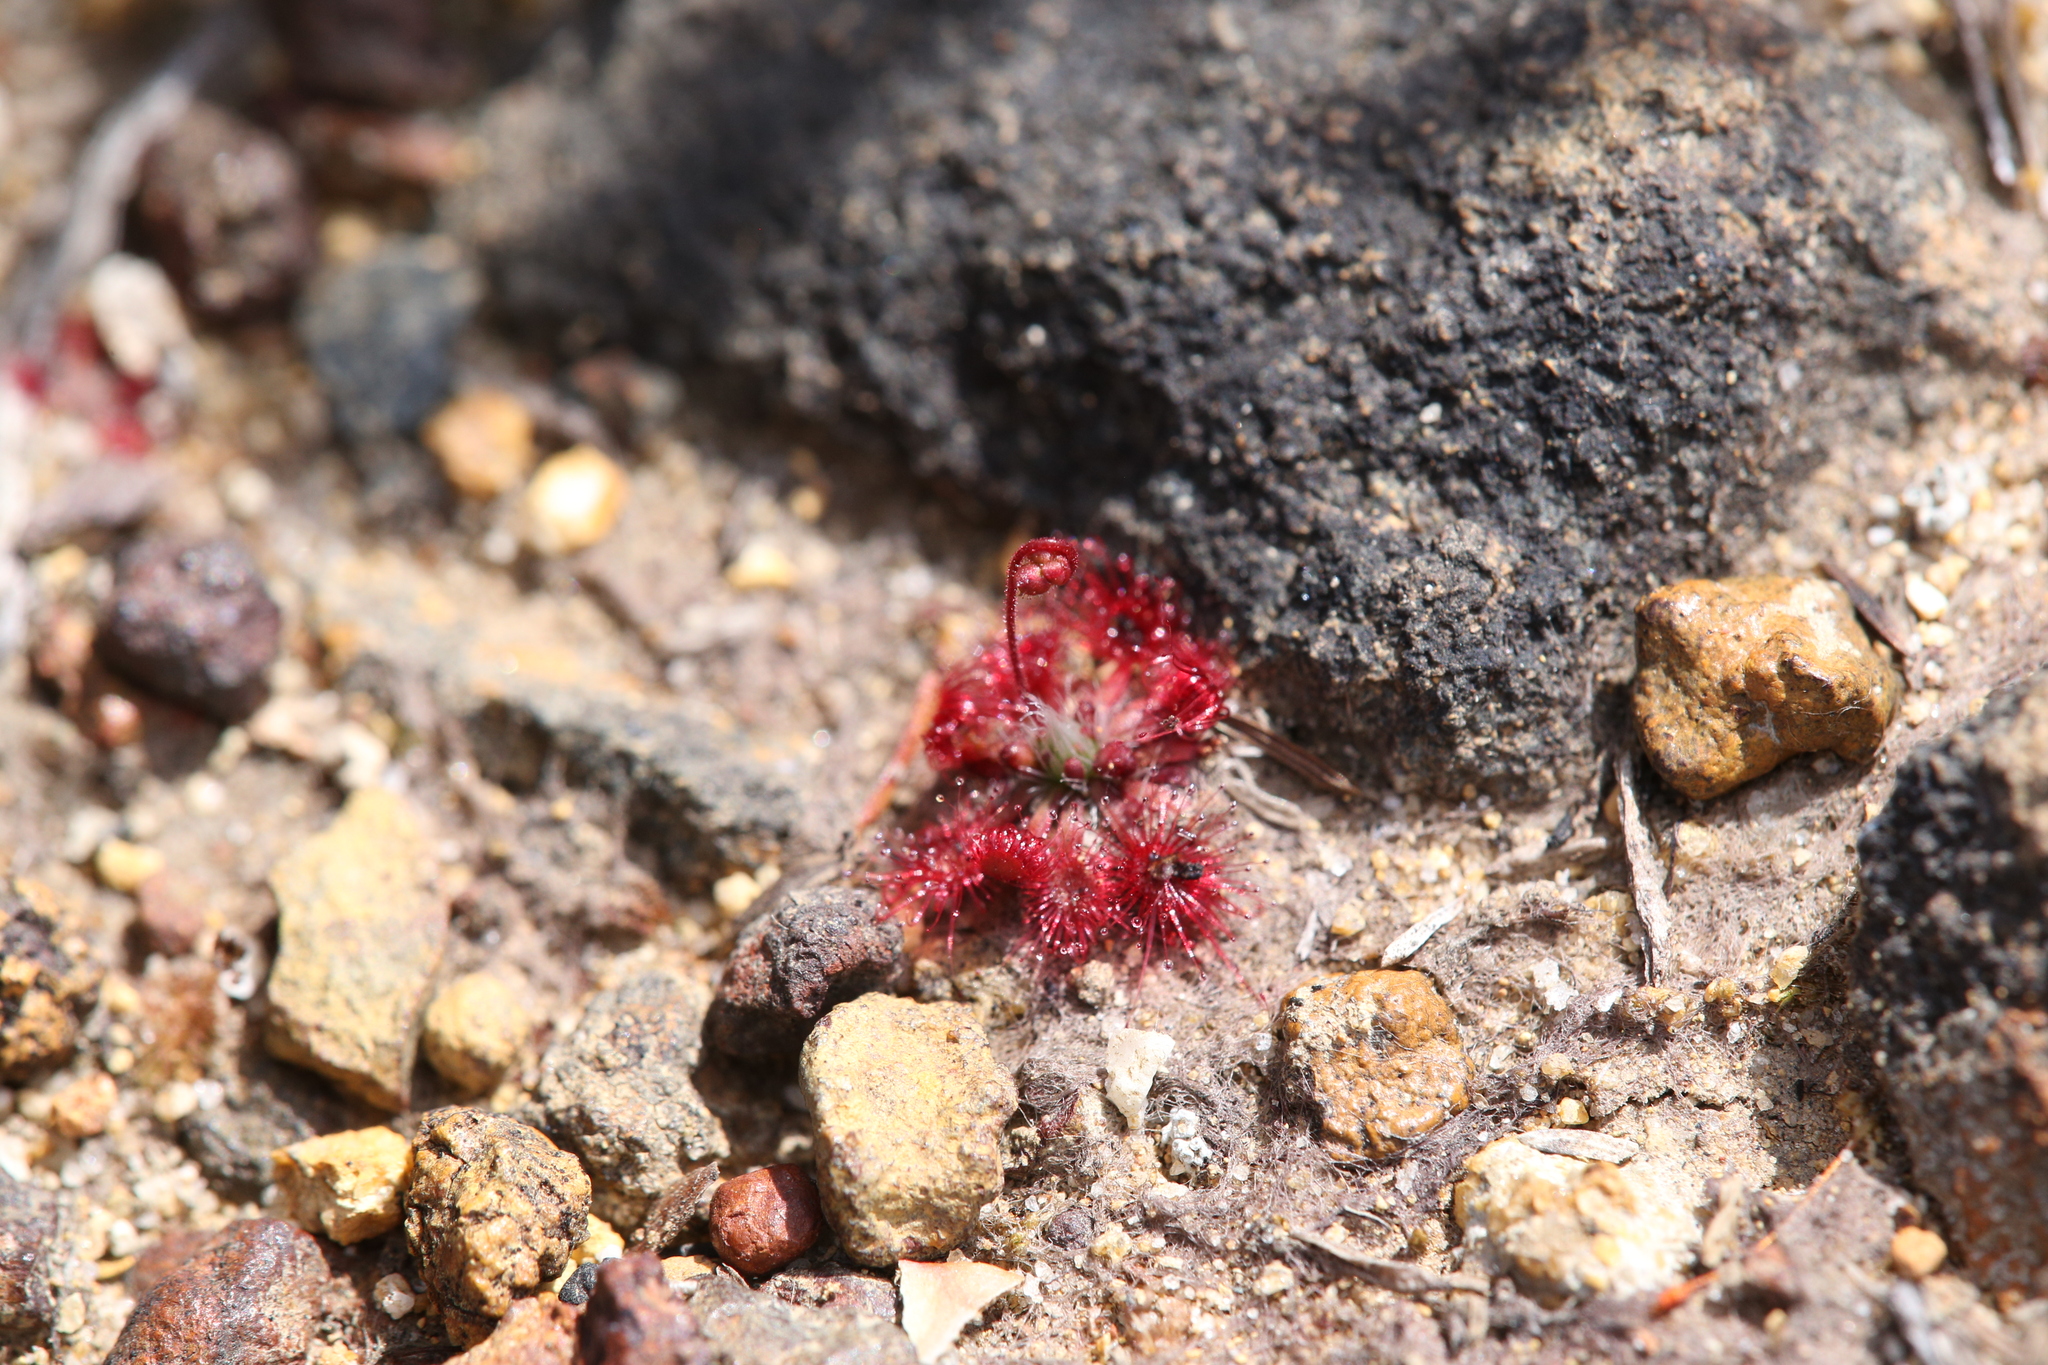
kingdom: Plantae
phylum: Tracheophyta
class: Magnoliopsida
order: Caryophyllales
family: Droseraceae
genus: Drosera
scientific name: Drosera spilos
